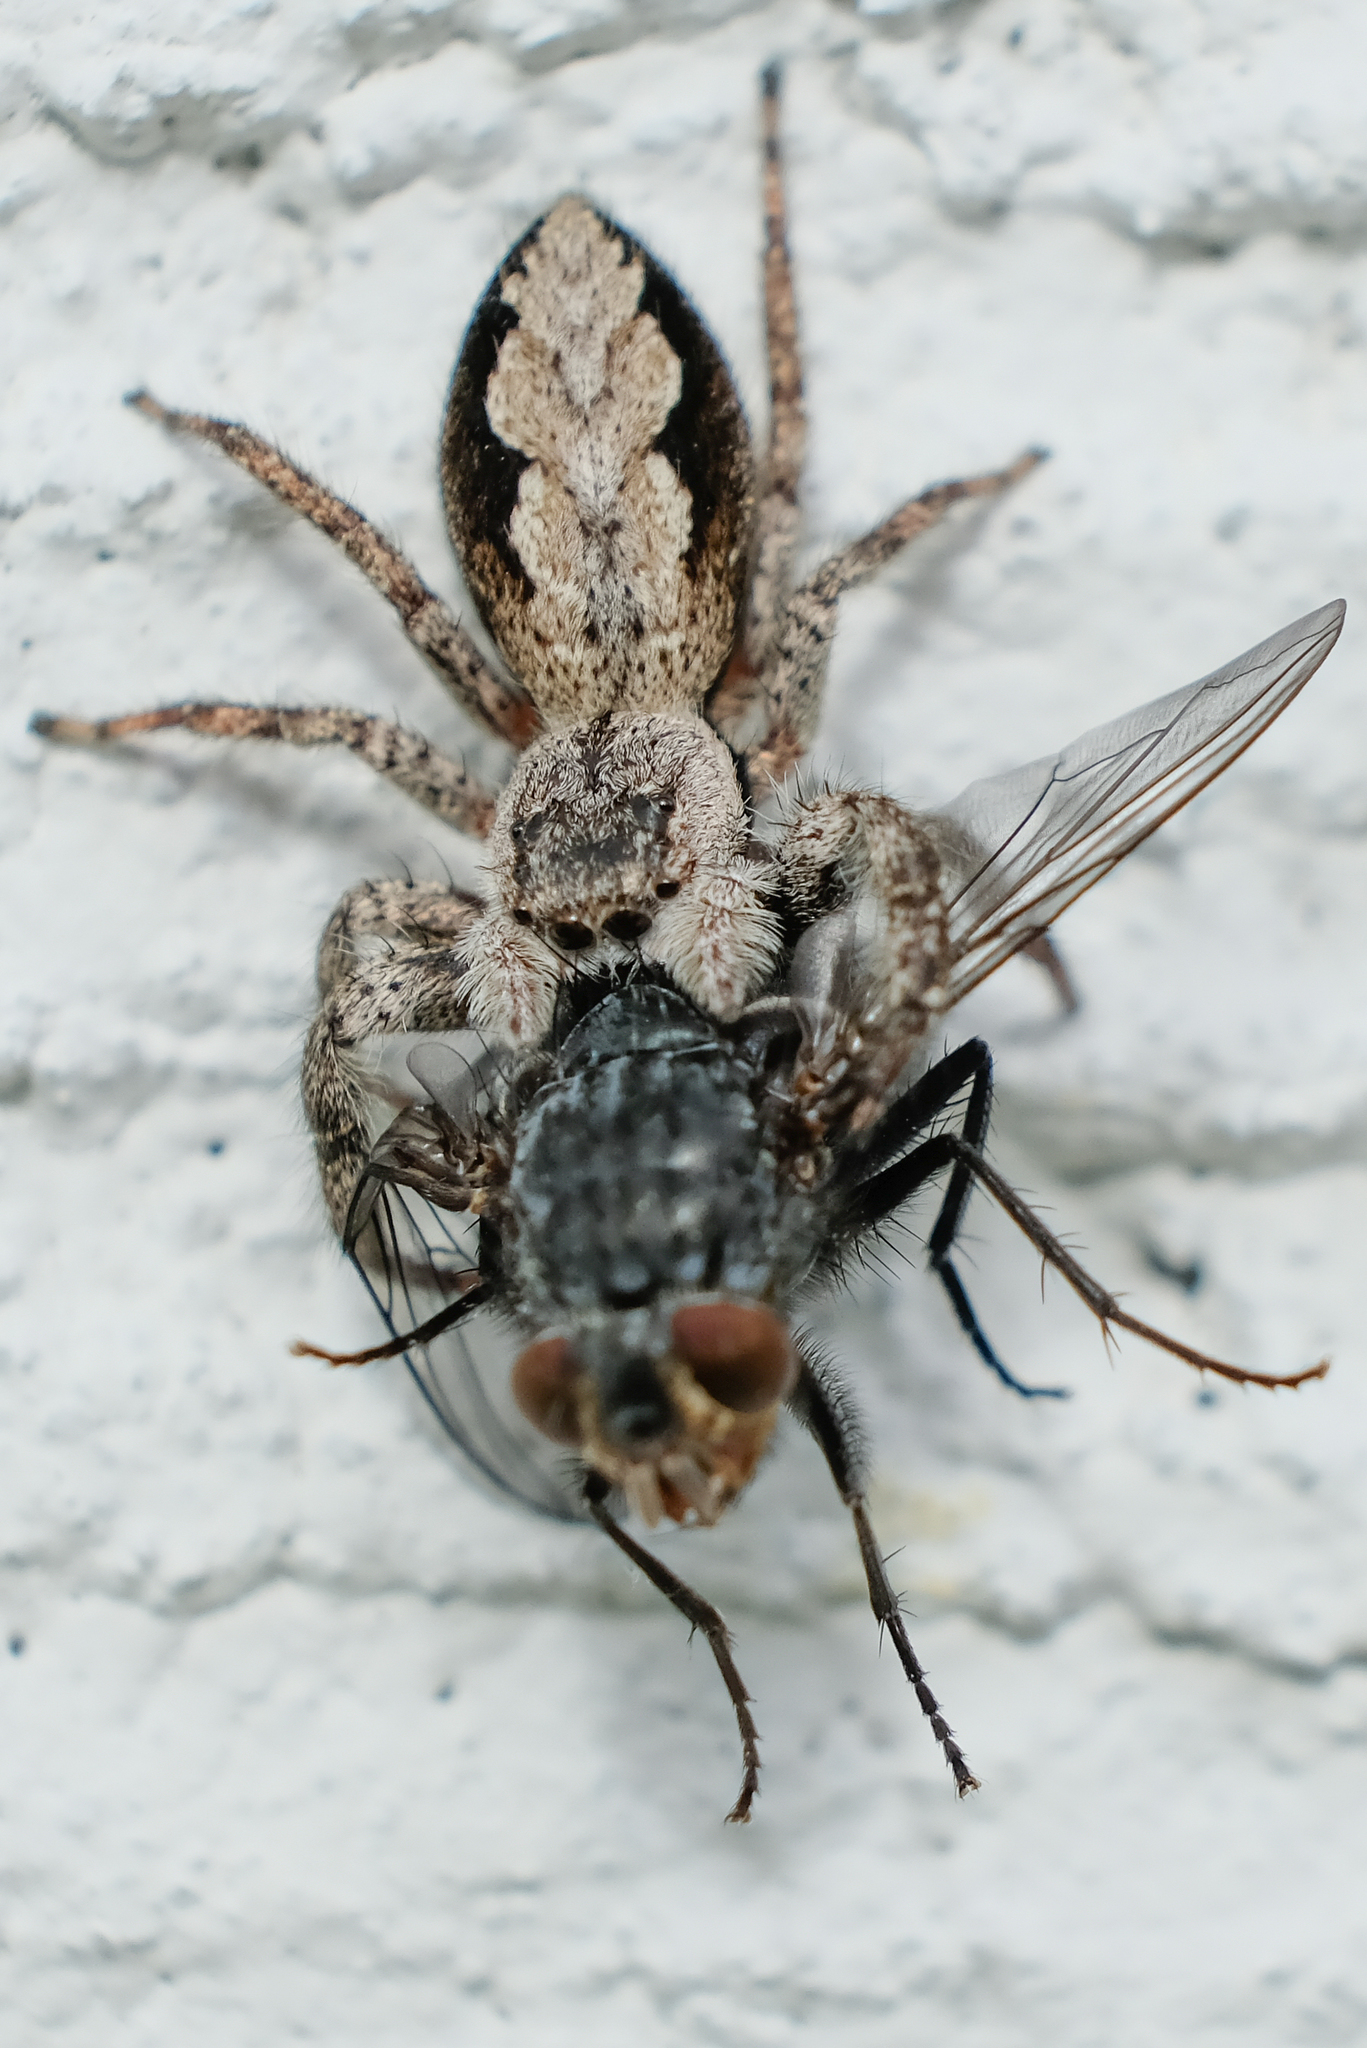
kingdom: Animalia
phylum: Arthropoda
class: Arachnida
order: Araneae
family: Salticidae
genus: Platycryptus
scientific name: Platycryptus undatus
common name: Tan jumping spider
